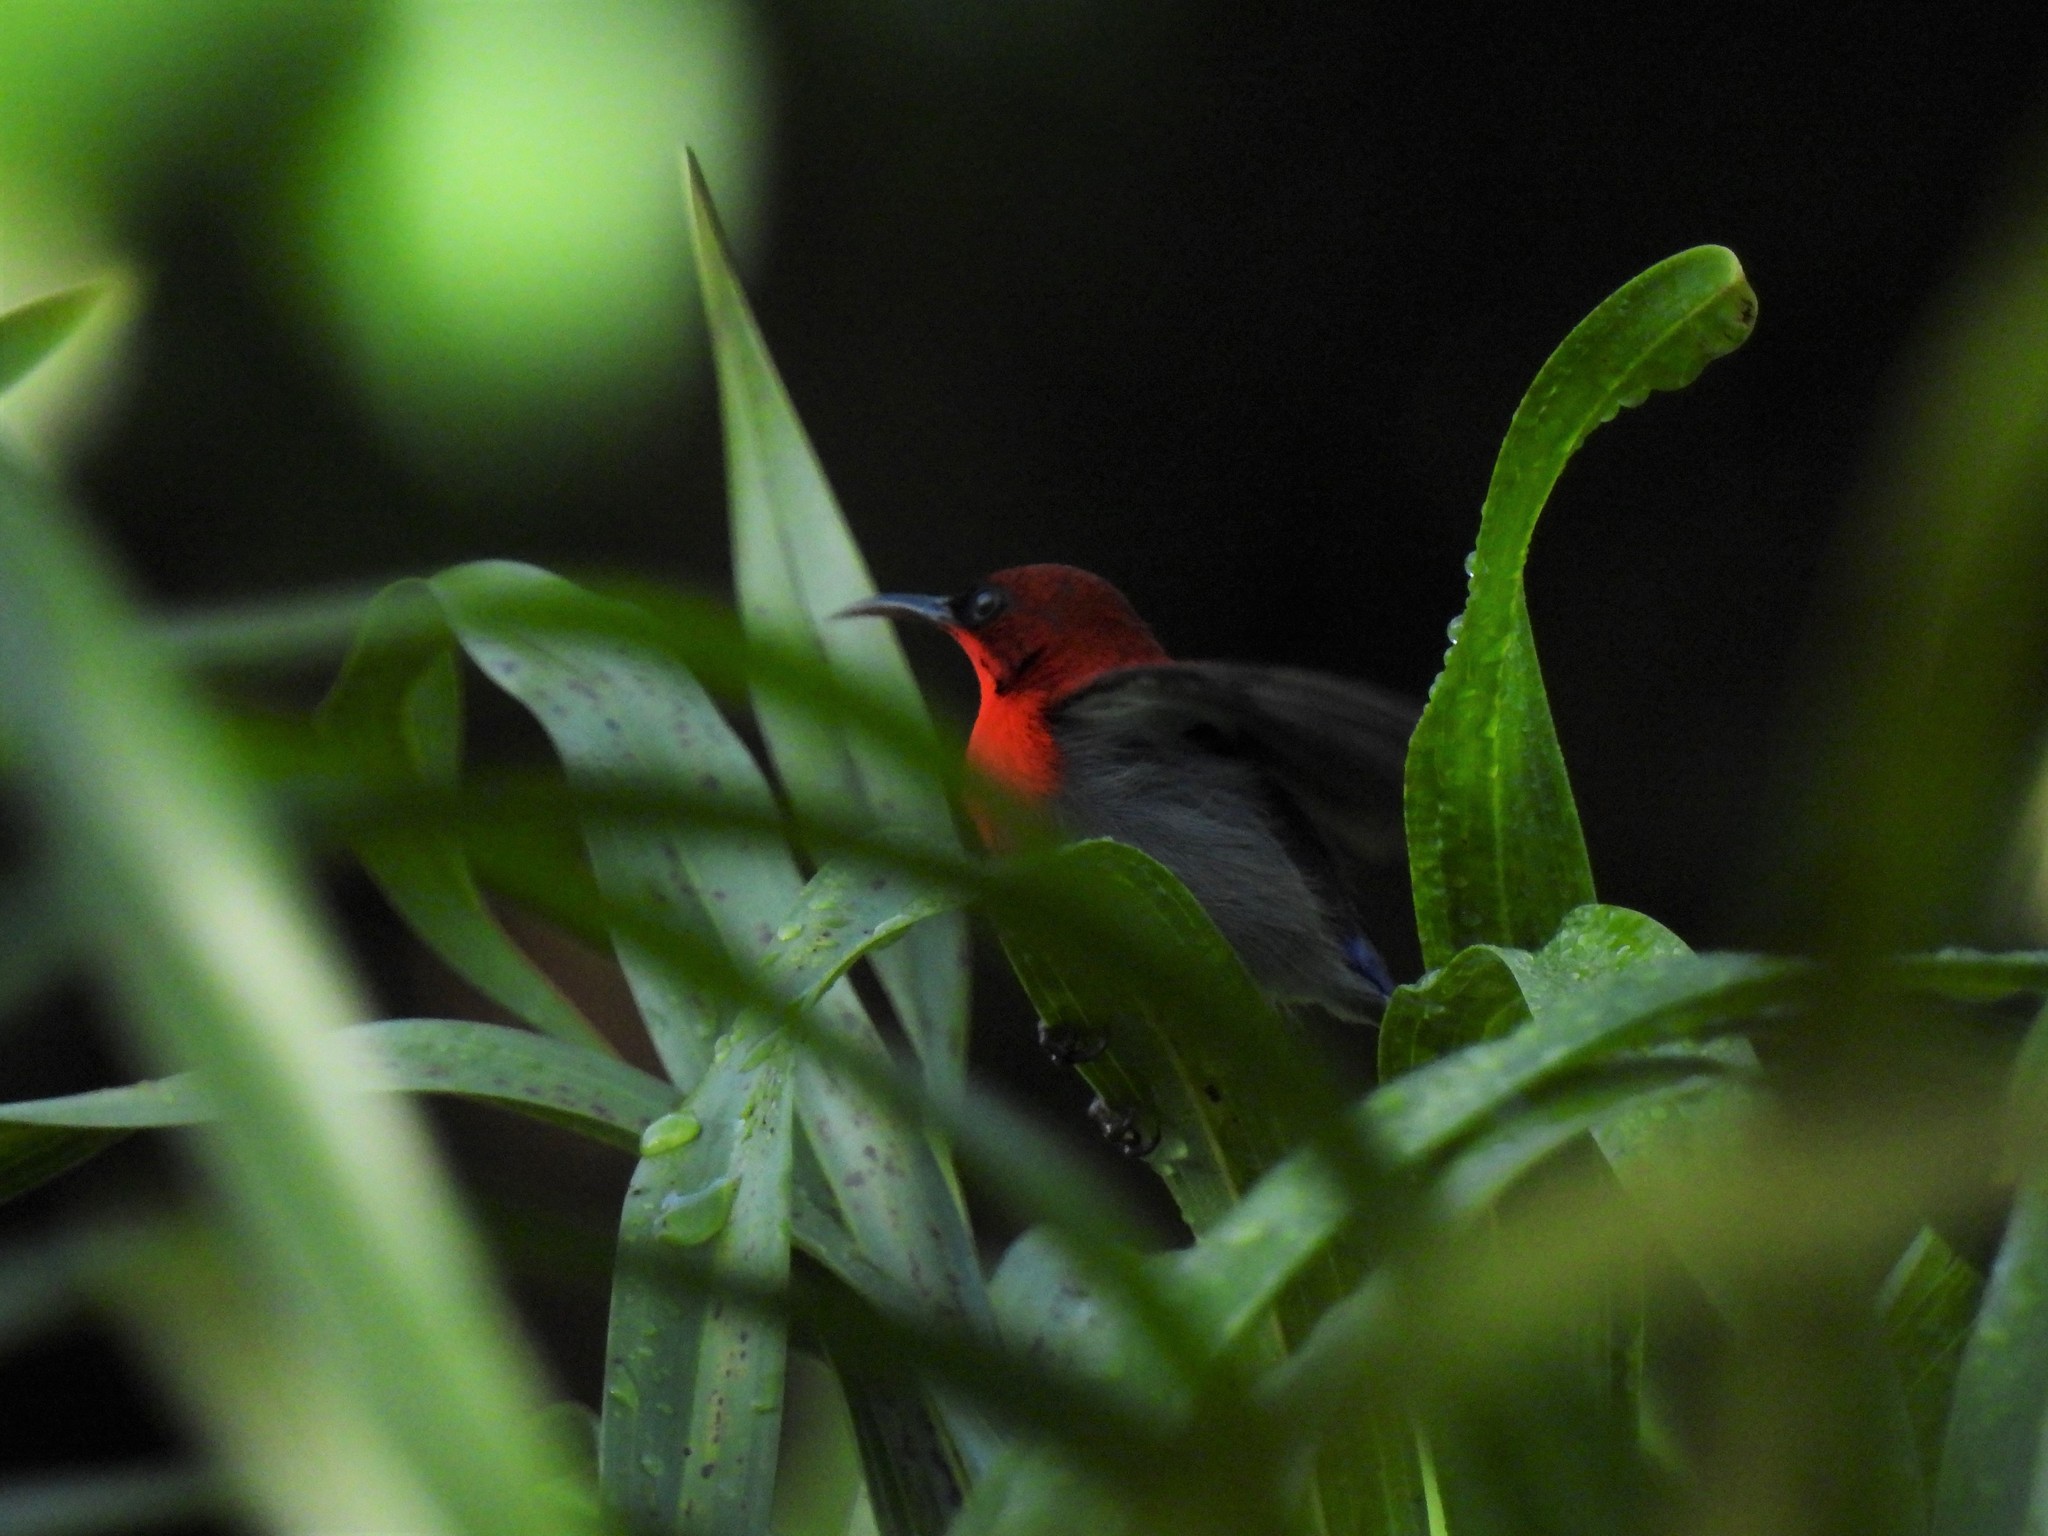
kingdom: Animalia
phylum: Chordata
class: Aves
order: Passeriformes
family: Nectariniidae
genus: Aethopyga
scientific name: Aethopyga siparaja
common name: Crimson sunbird
